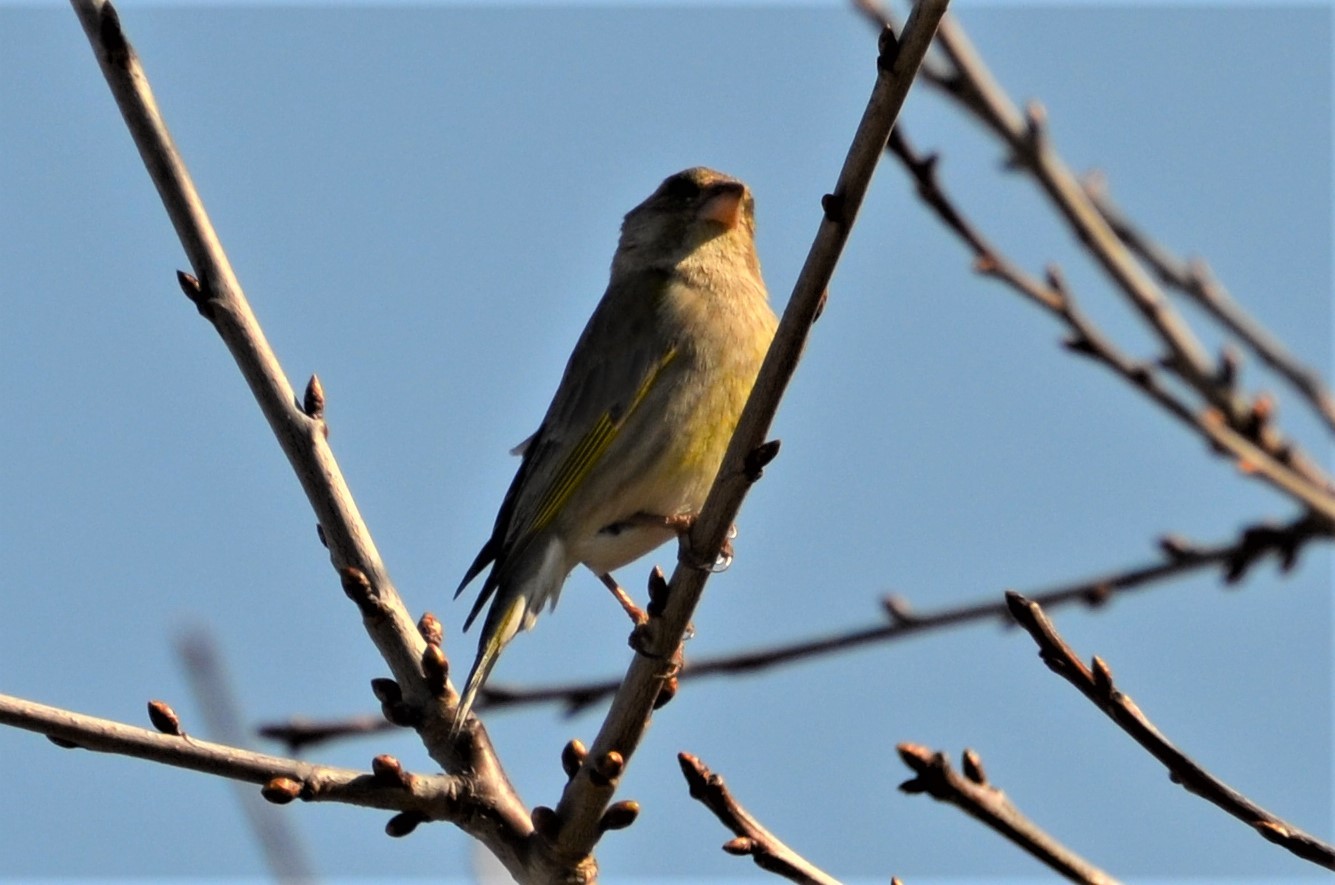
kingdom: Plantae
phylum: Tracheophyta
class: Liliopsida
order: Poales
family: Poaceae
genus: Chloris
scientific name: Chloris chloris
